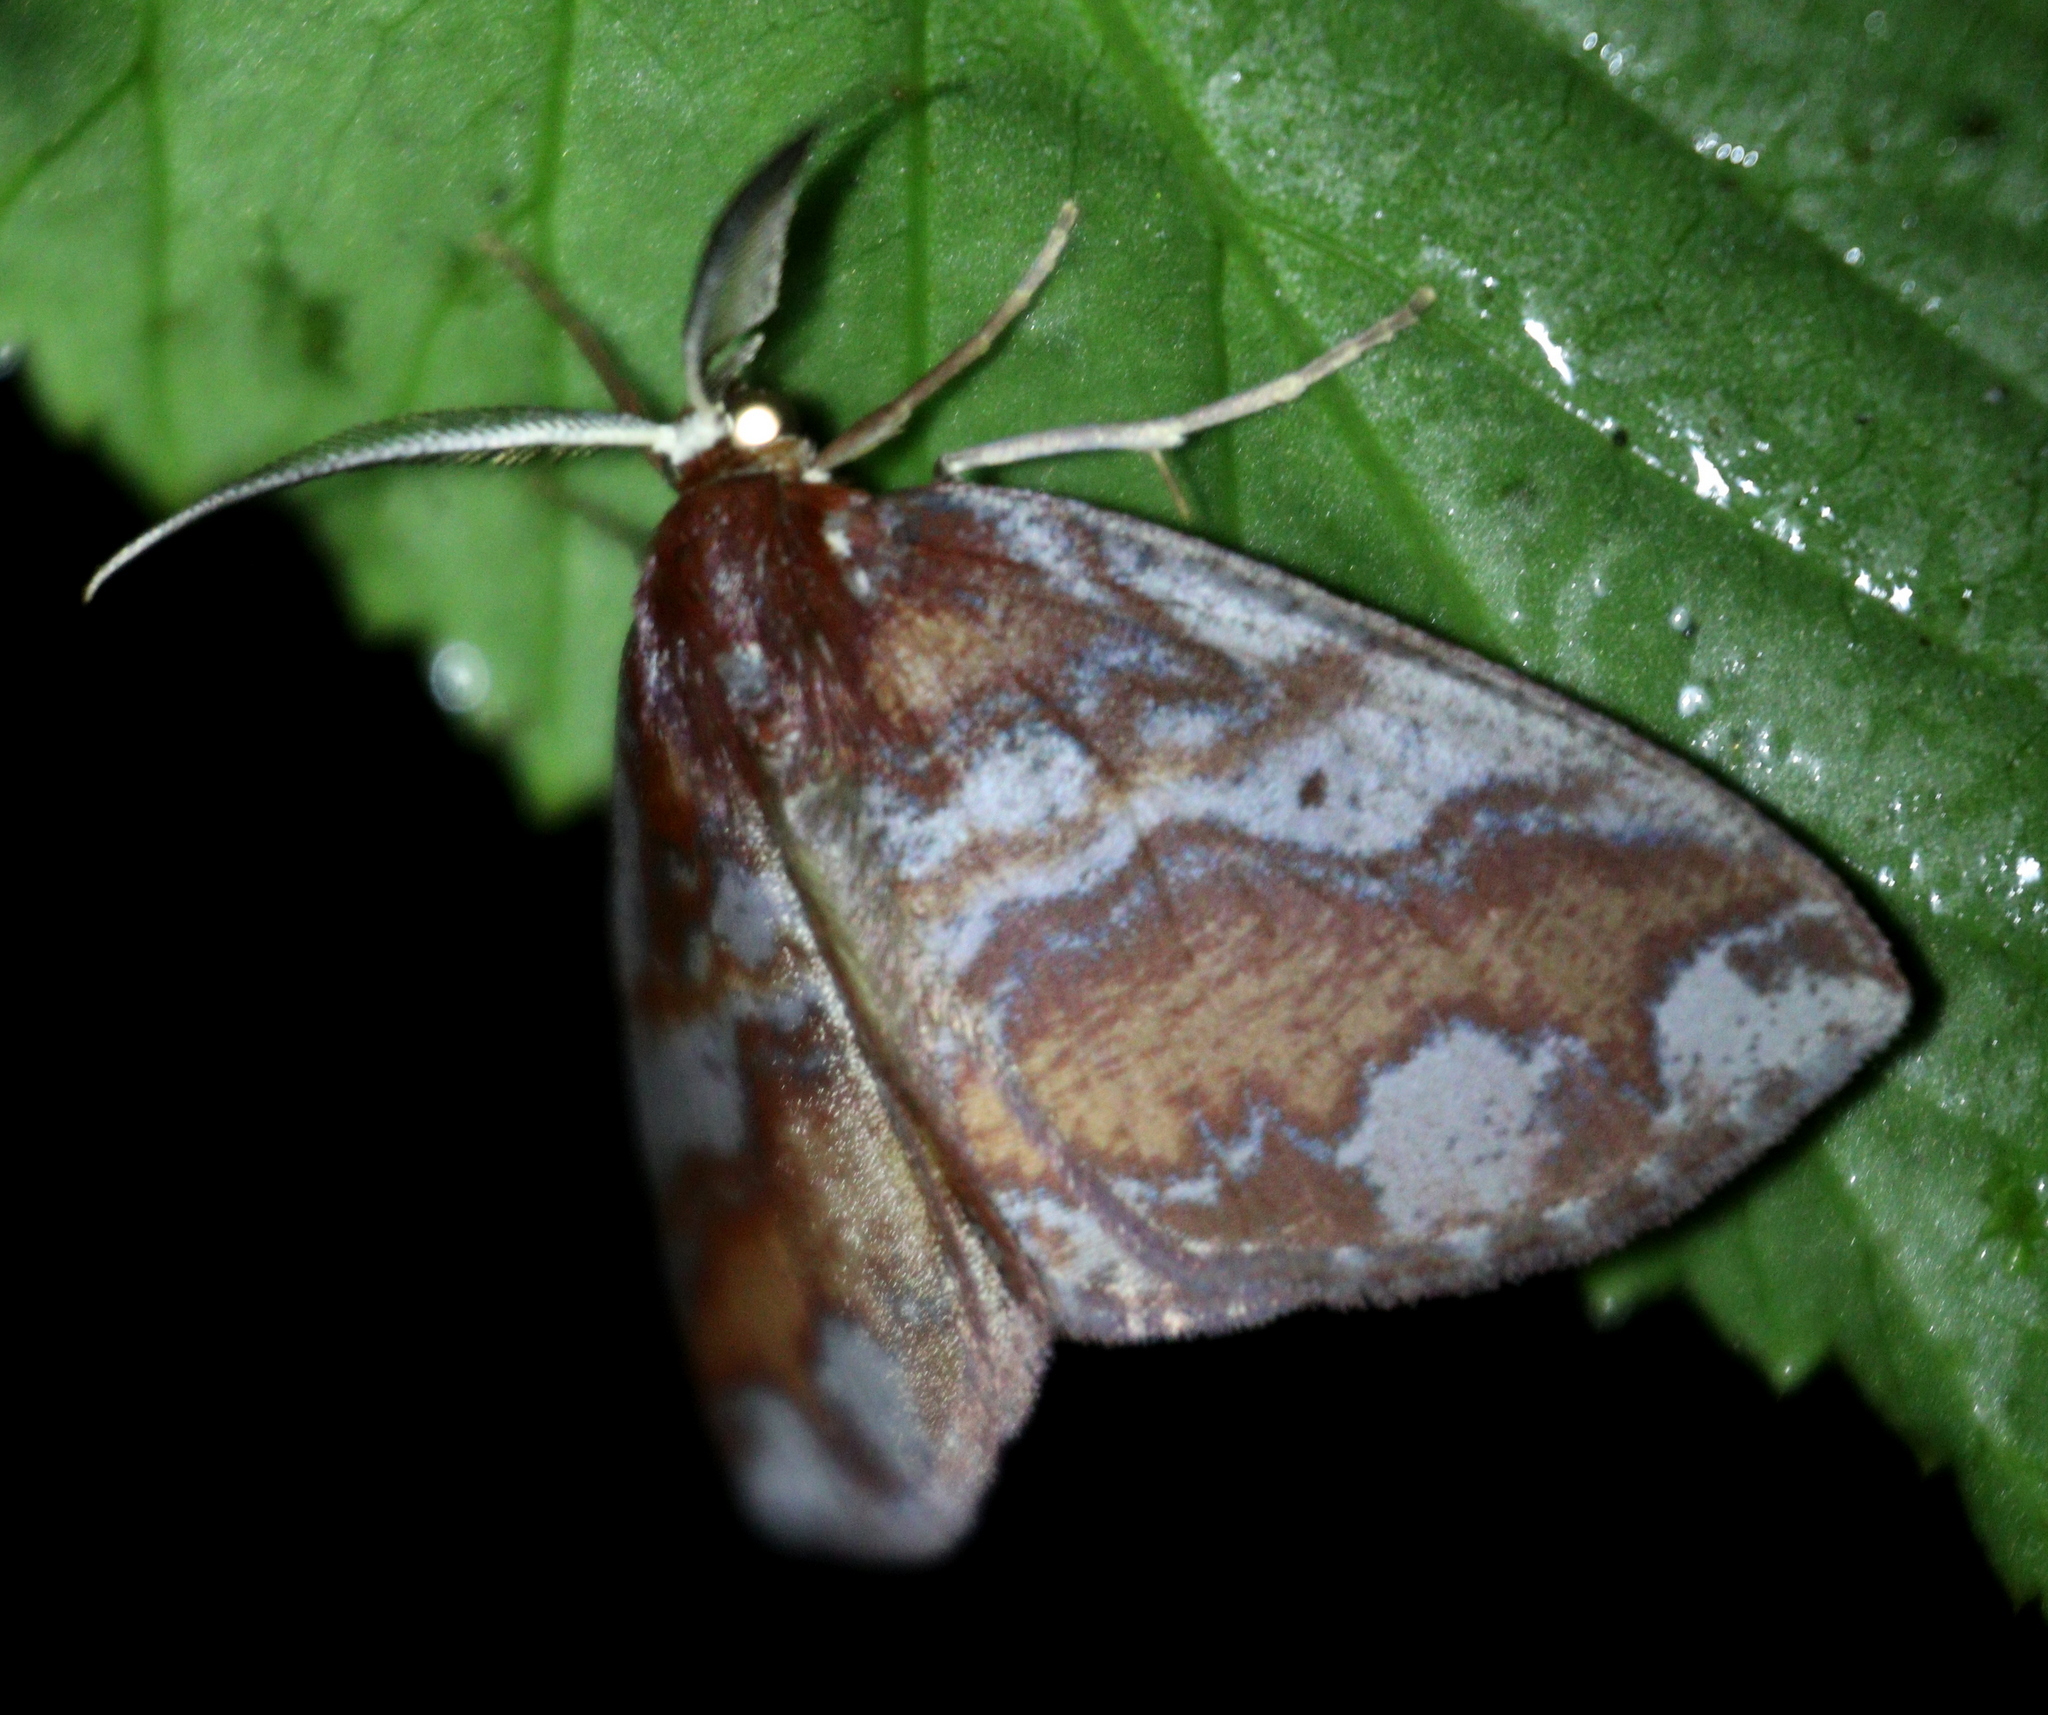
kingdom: Animalia
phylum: Arthropoda
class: Insecta
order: Lepidoptera
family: Geometridae
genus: Lobopola
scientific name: Lobopola cimarrona
